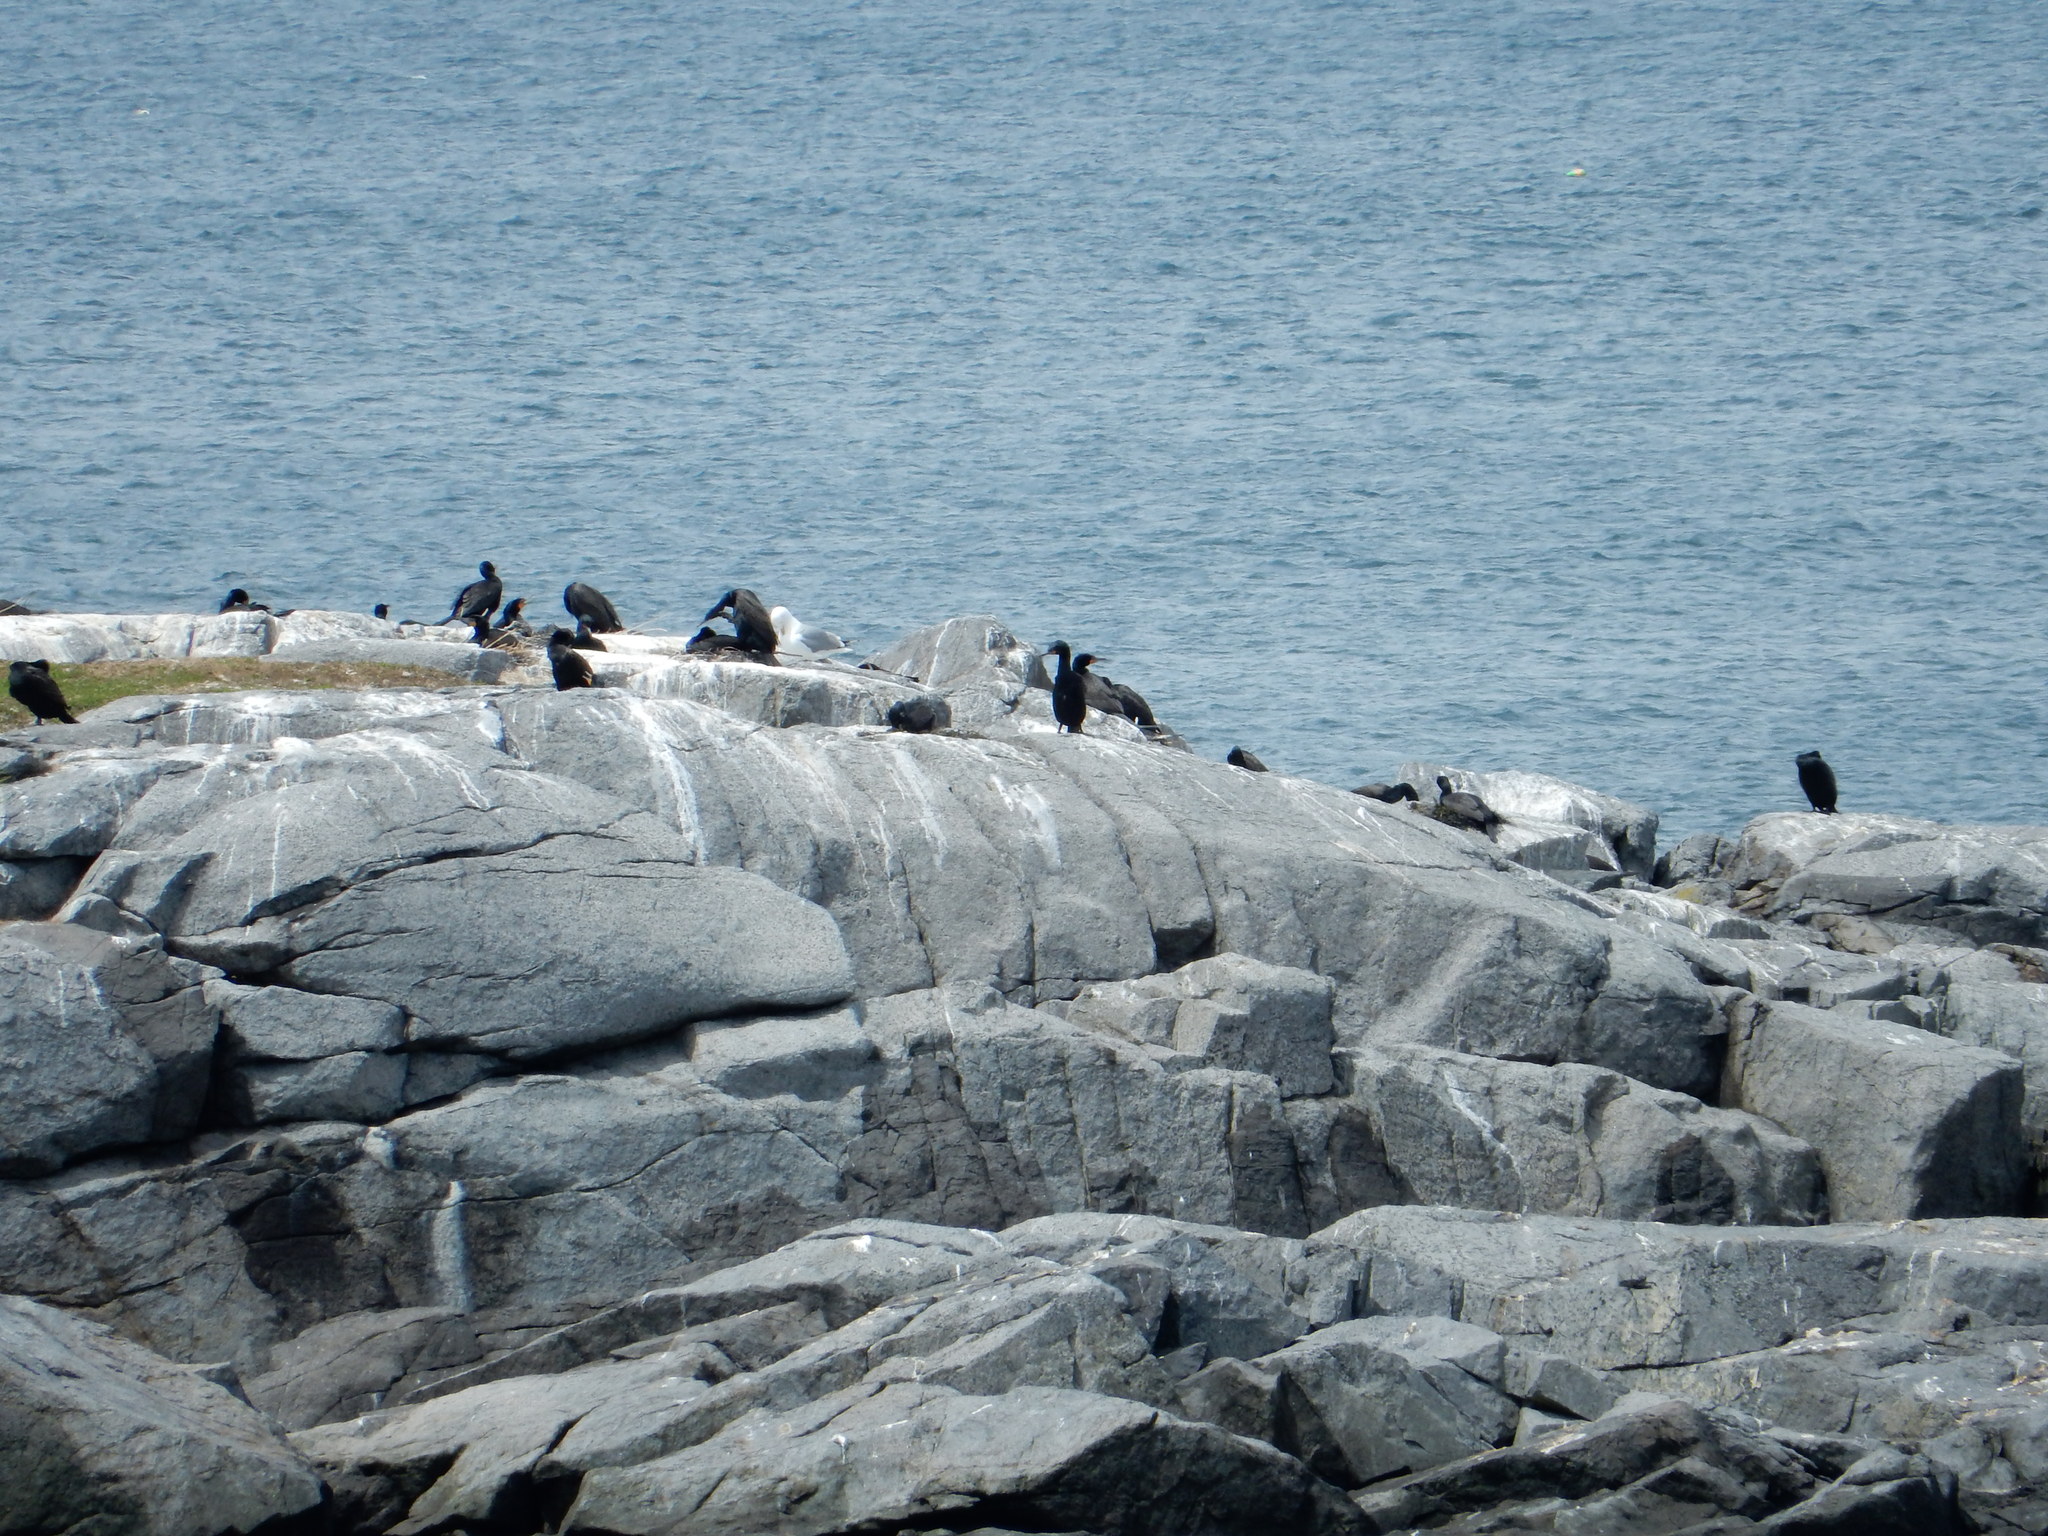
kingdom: Animalia
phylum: Chordata
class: Aves
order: Suliformes
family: Phalacrocoracidae
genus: Phalacrocorax
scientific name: Phalacrocorax auritus
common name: Double-crested cormorant
